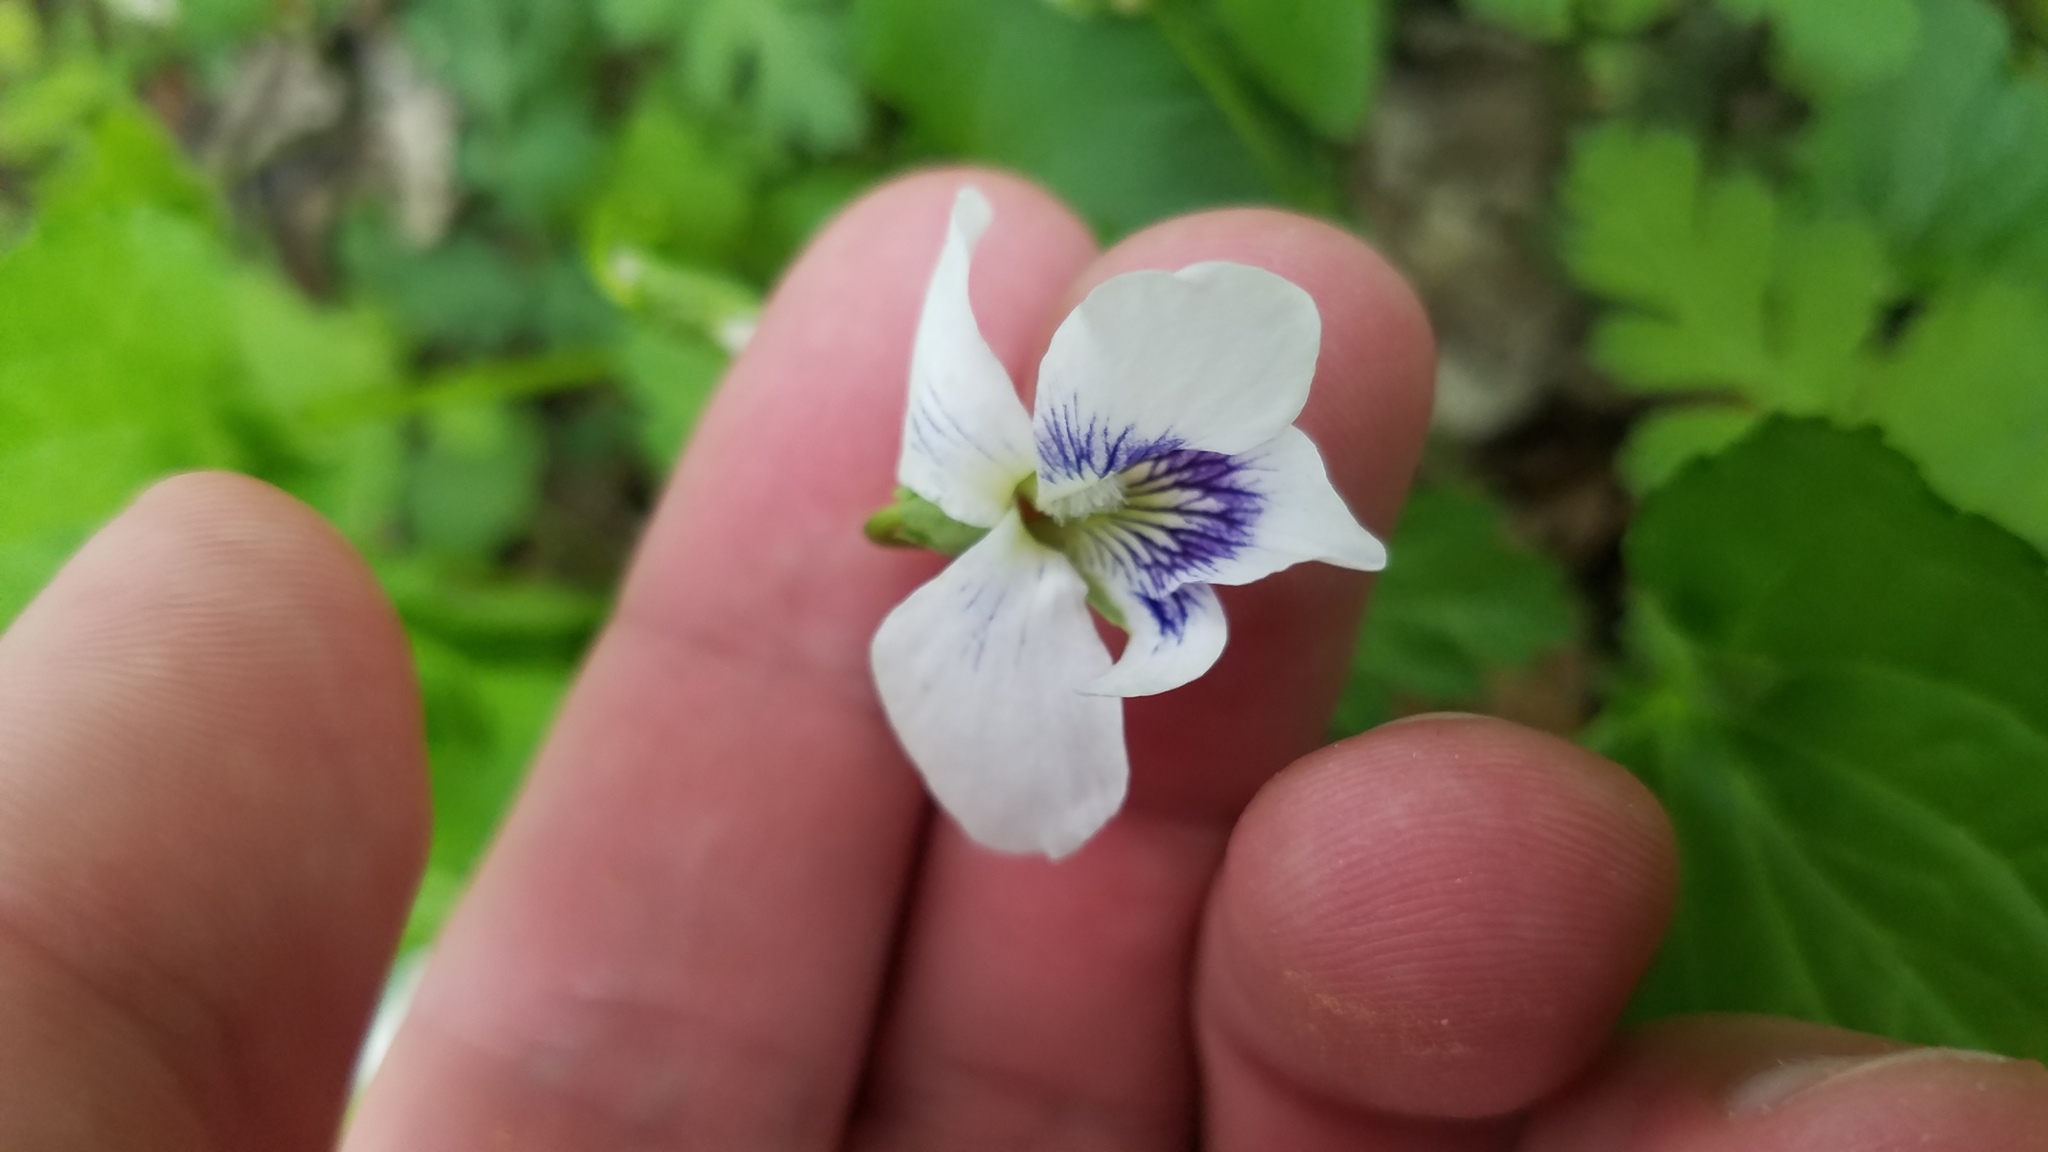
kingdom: Plantae
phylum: Tracheophyta
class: Magnoliopsida
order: Malpighiales
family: Violaceae
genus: Viola
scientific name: Viola sororia
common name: Dooryard violet
